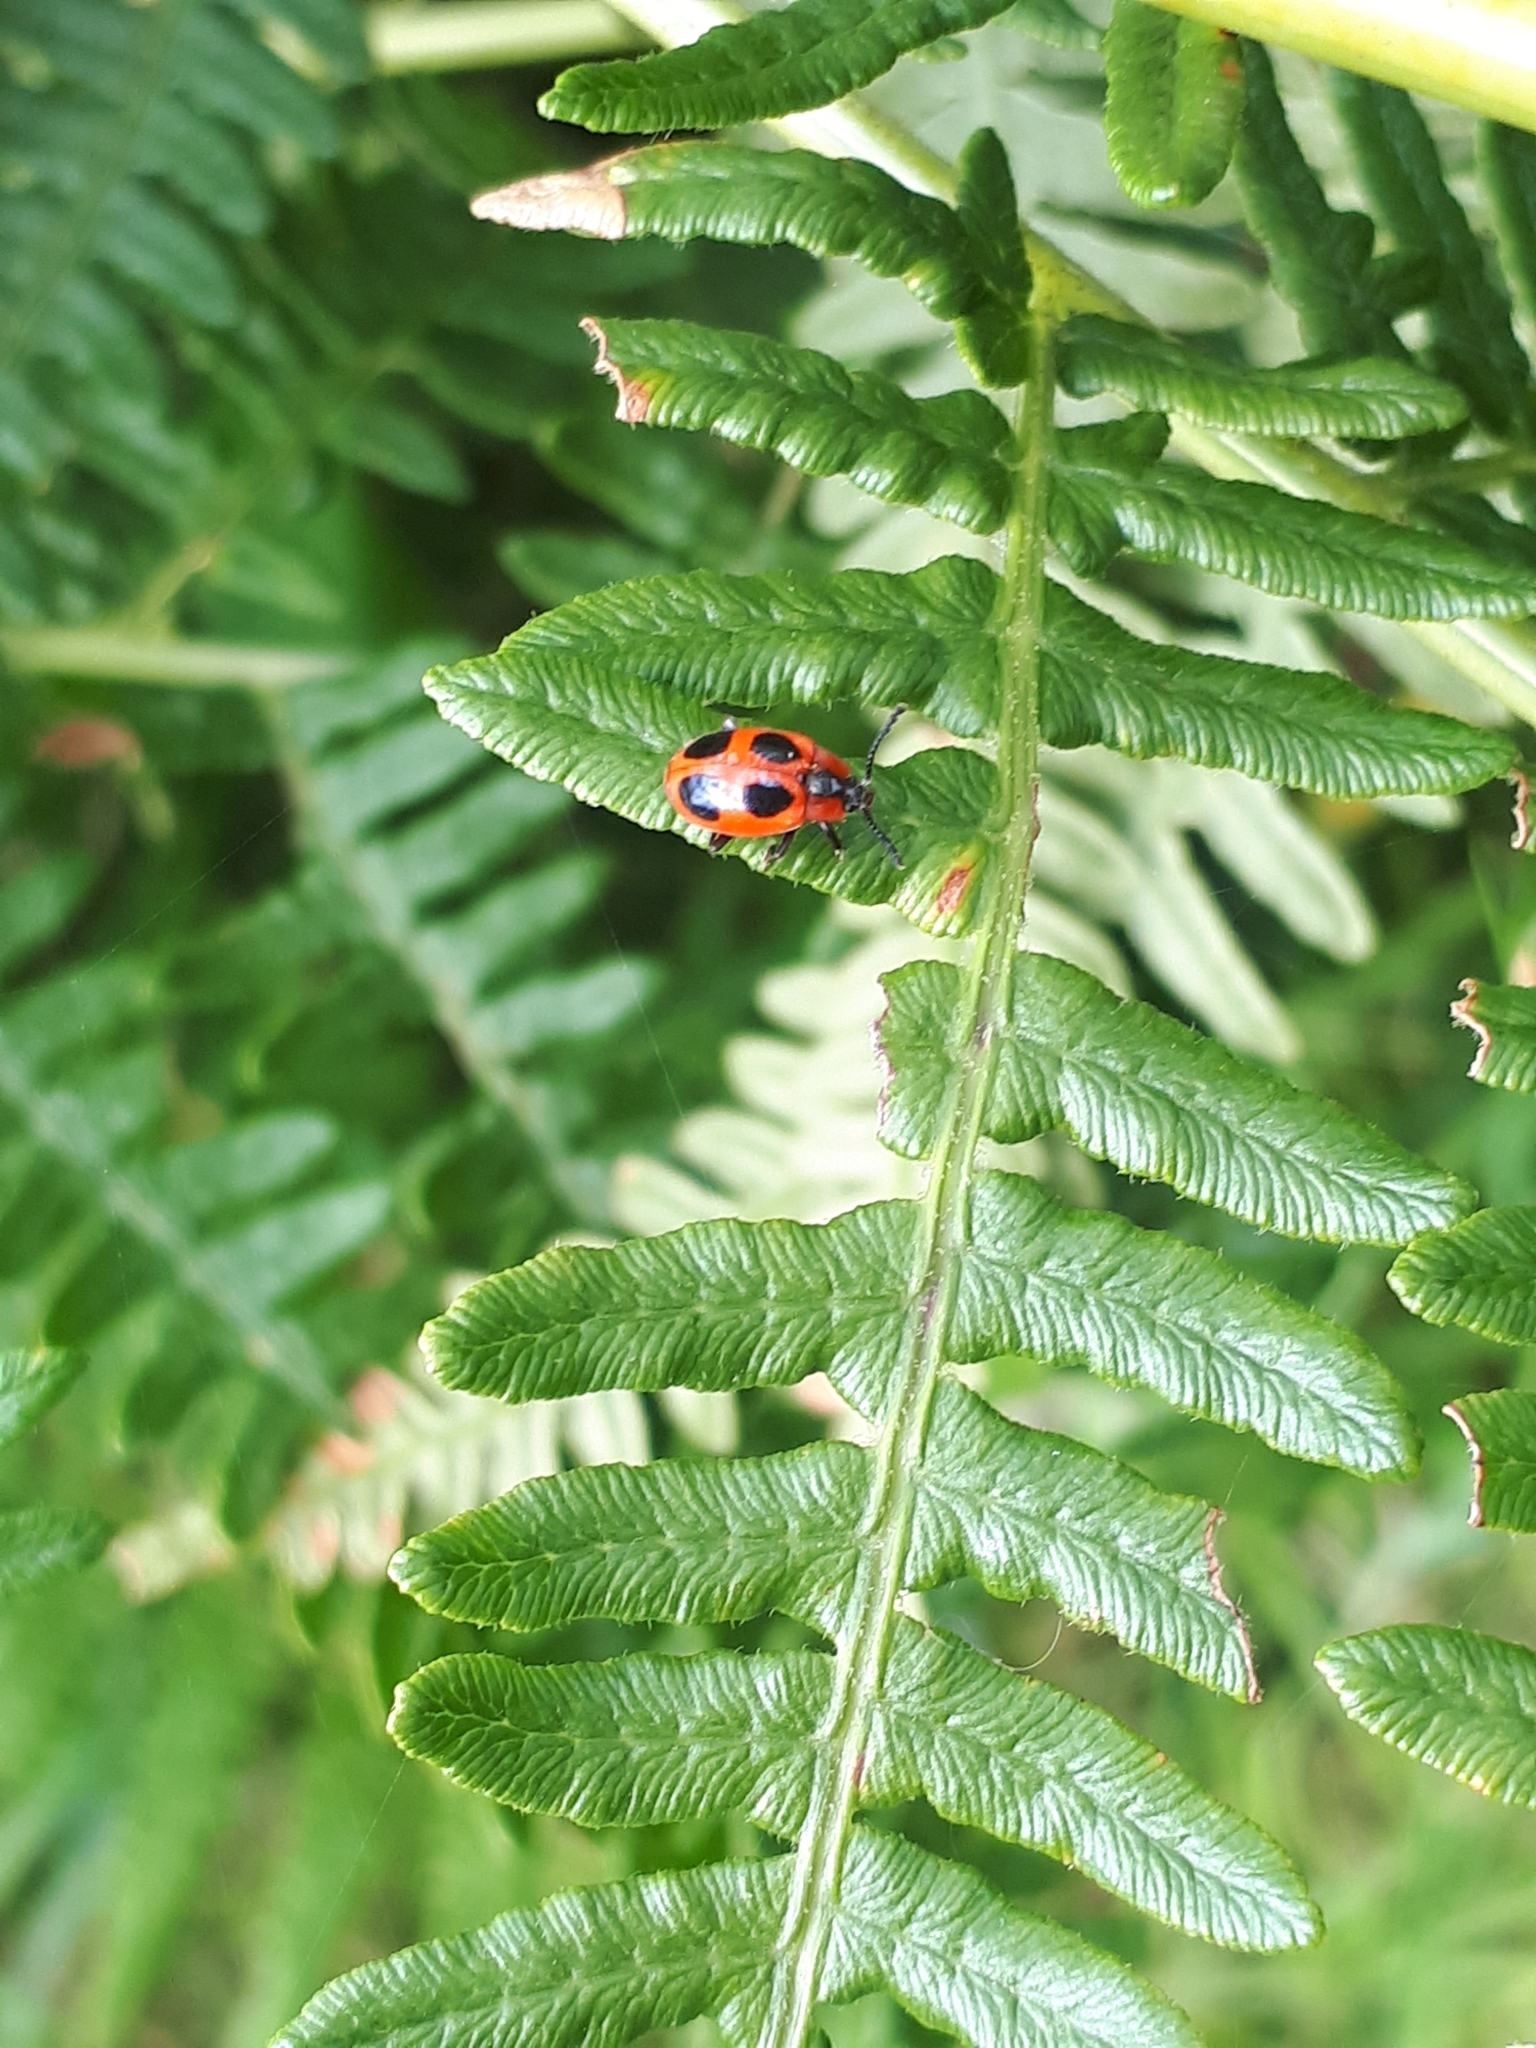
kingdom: Animalia
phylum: Arthropoda
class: Insecta
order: Coleoptera
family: Endomychidae
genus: Endomychus
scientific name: Endomychus coccineus
